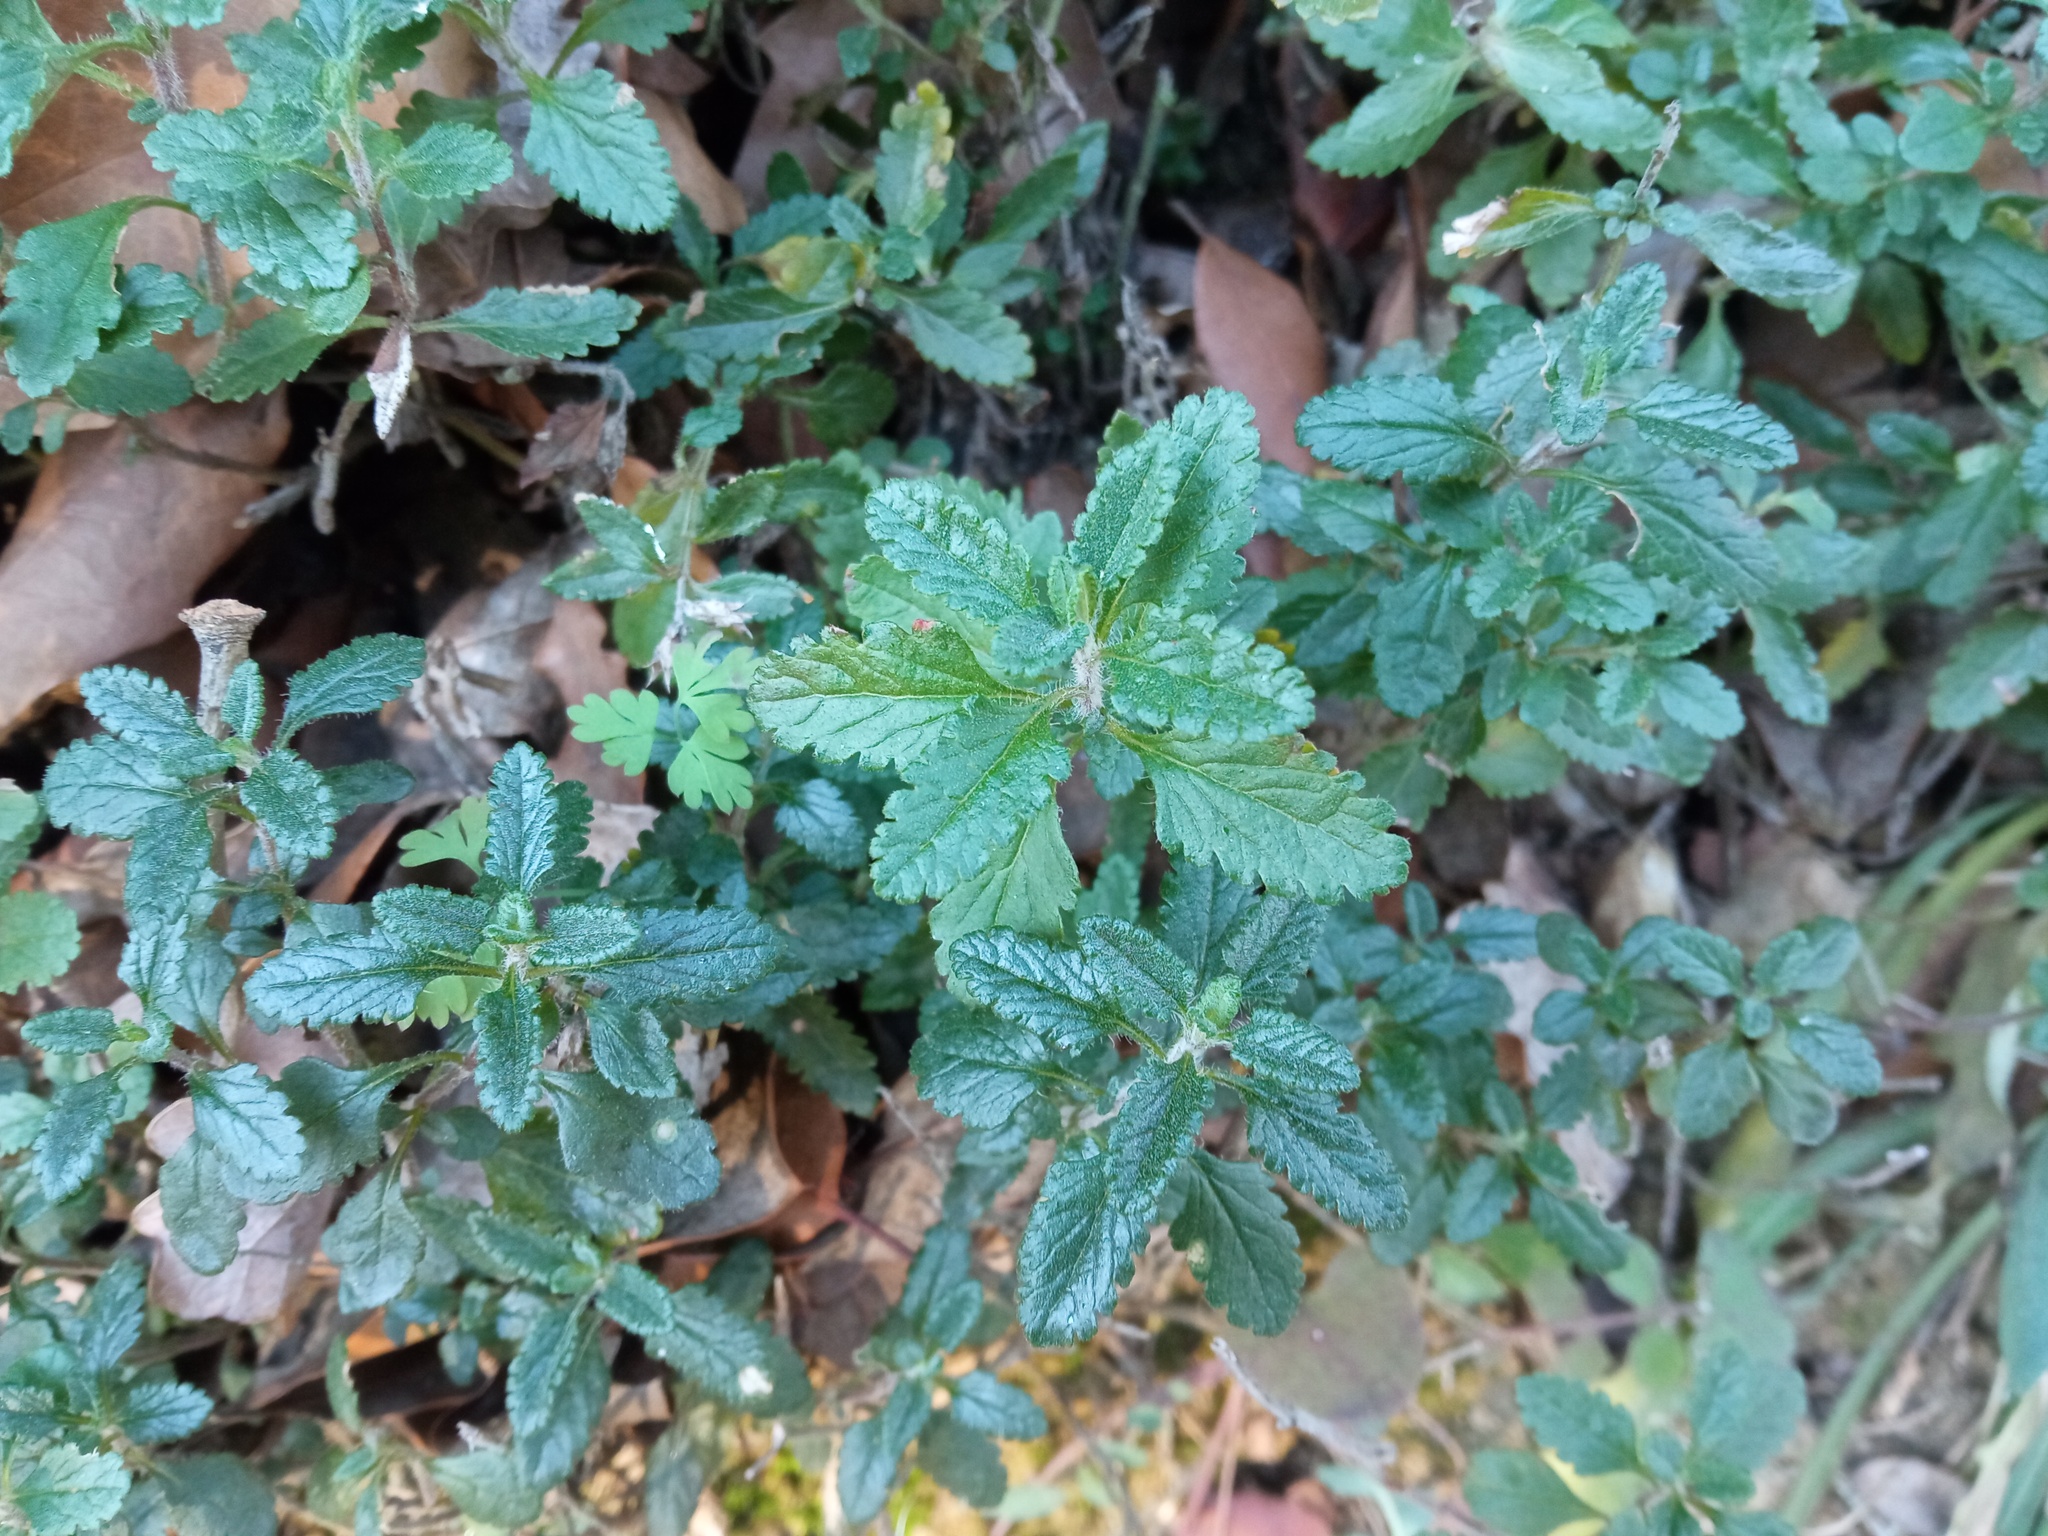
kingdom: Plantae
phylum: Tracheophyta
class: Magnoliopsida
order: Lamiales
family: Lamiaceae
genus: Teucrium
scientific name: Teucrium chamaedrys
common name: Wall germander
